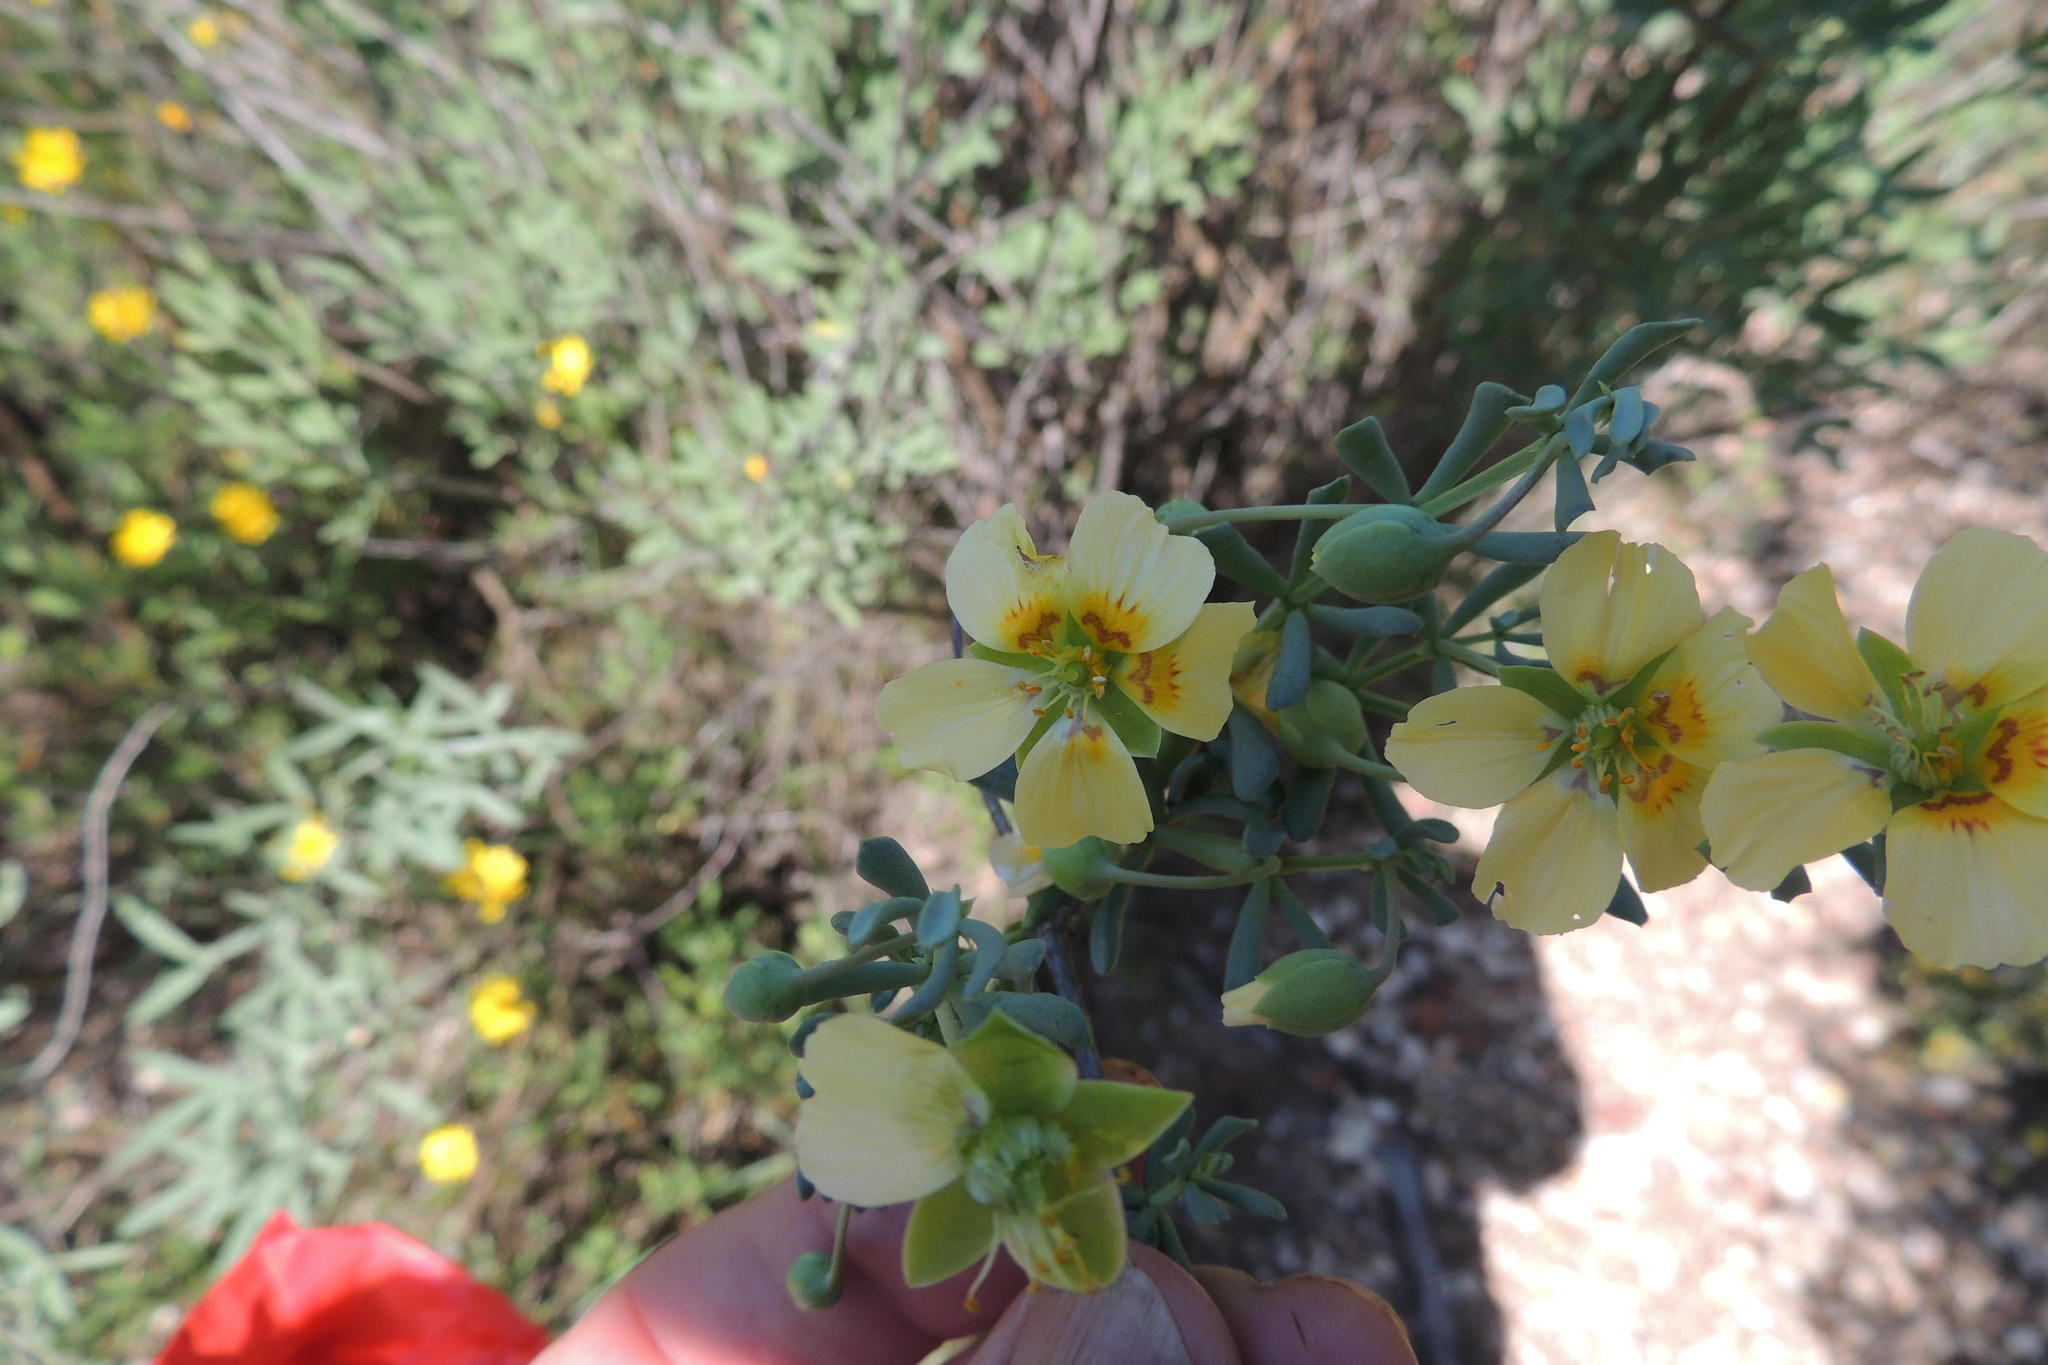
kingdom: Plantae
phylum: Tracheophyta
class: Magnoliopsida
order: Zygophyllales
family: Zygophyllaceae
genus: Roepera
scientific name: Roepera pygmaea
